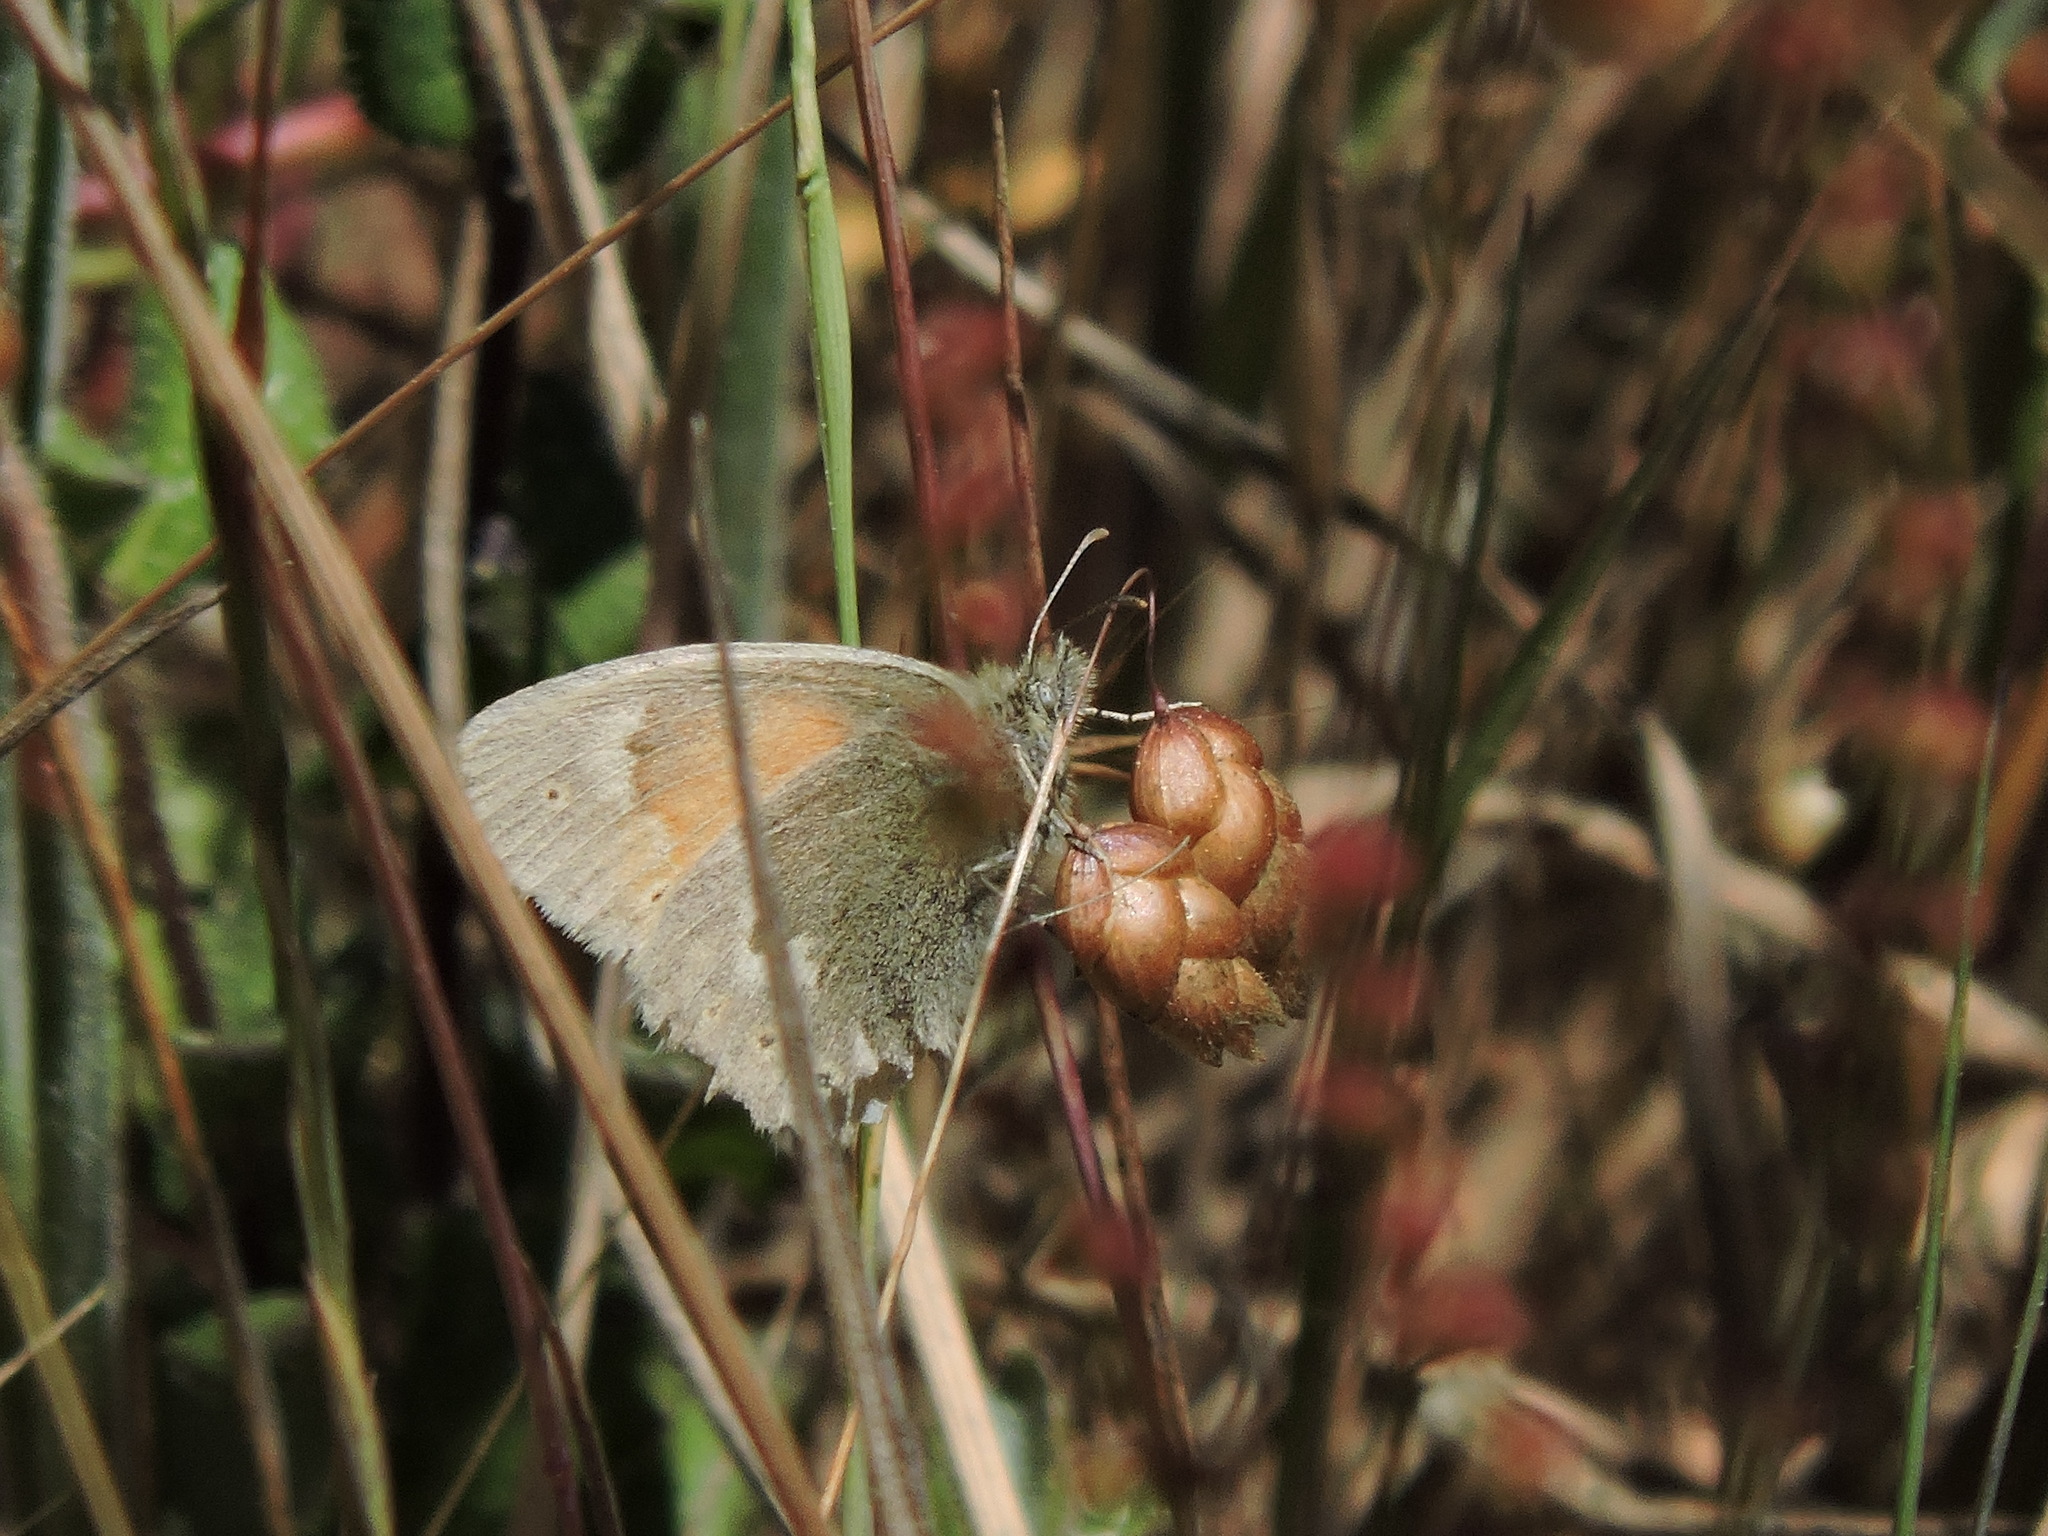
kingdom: Animalia
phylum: Arthropoda
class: Insecta
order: Lepidoptera
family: Nymphalidae
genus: Coenonympha
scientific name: Coenonympha california
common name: Common ringlet
